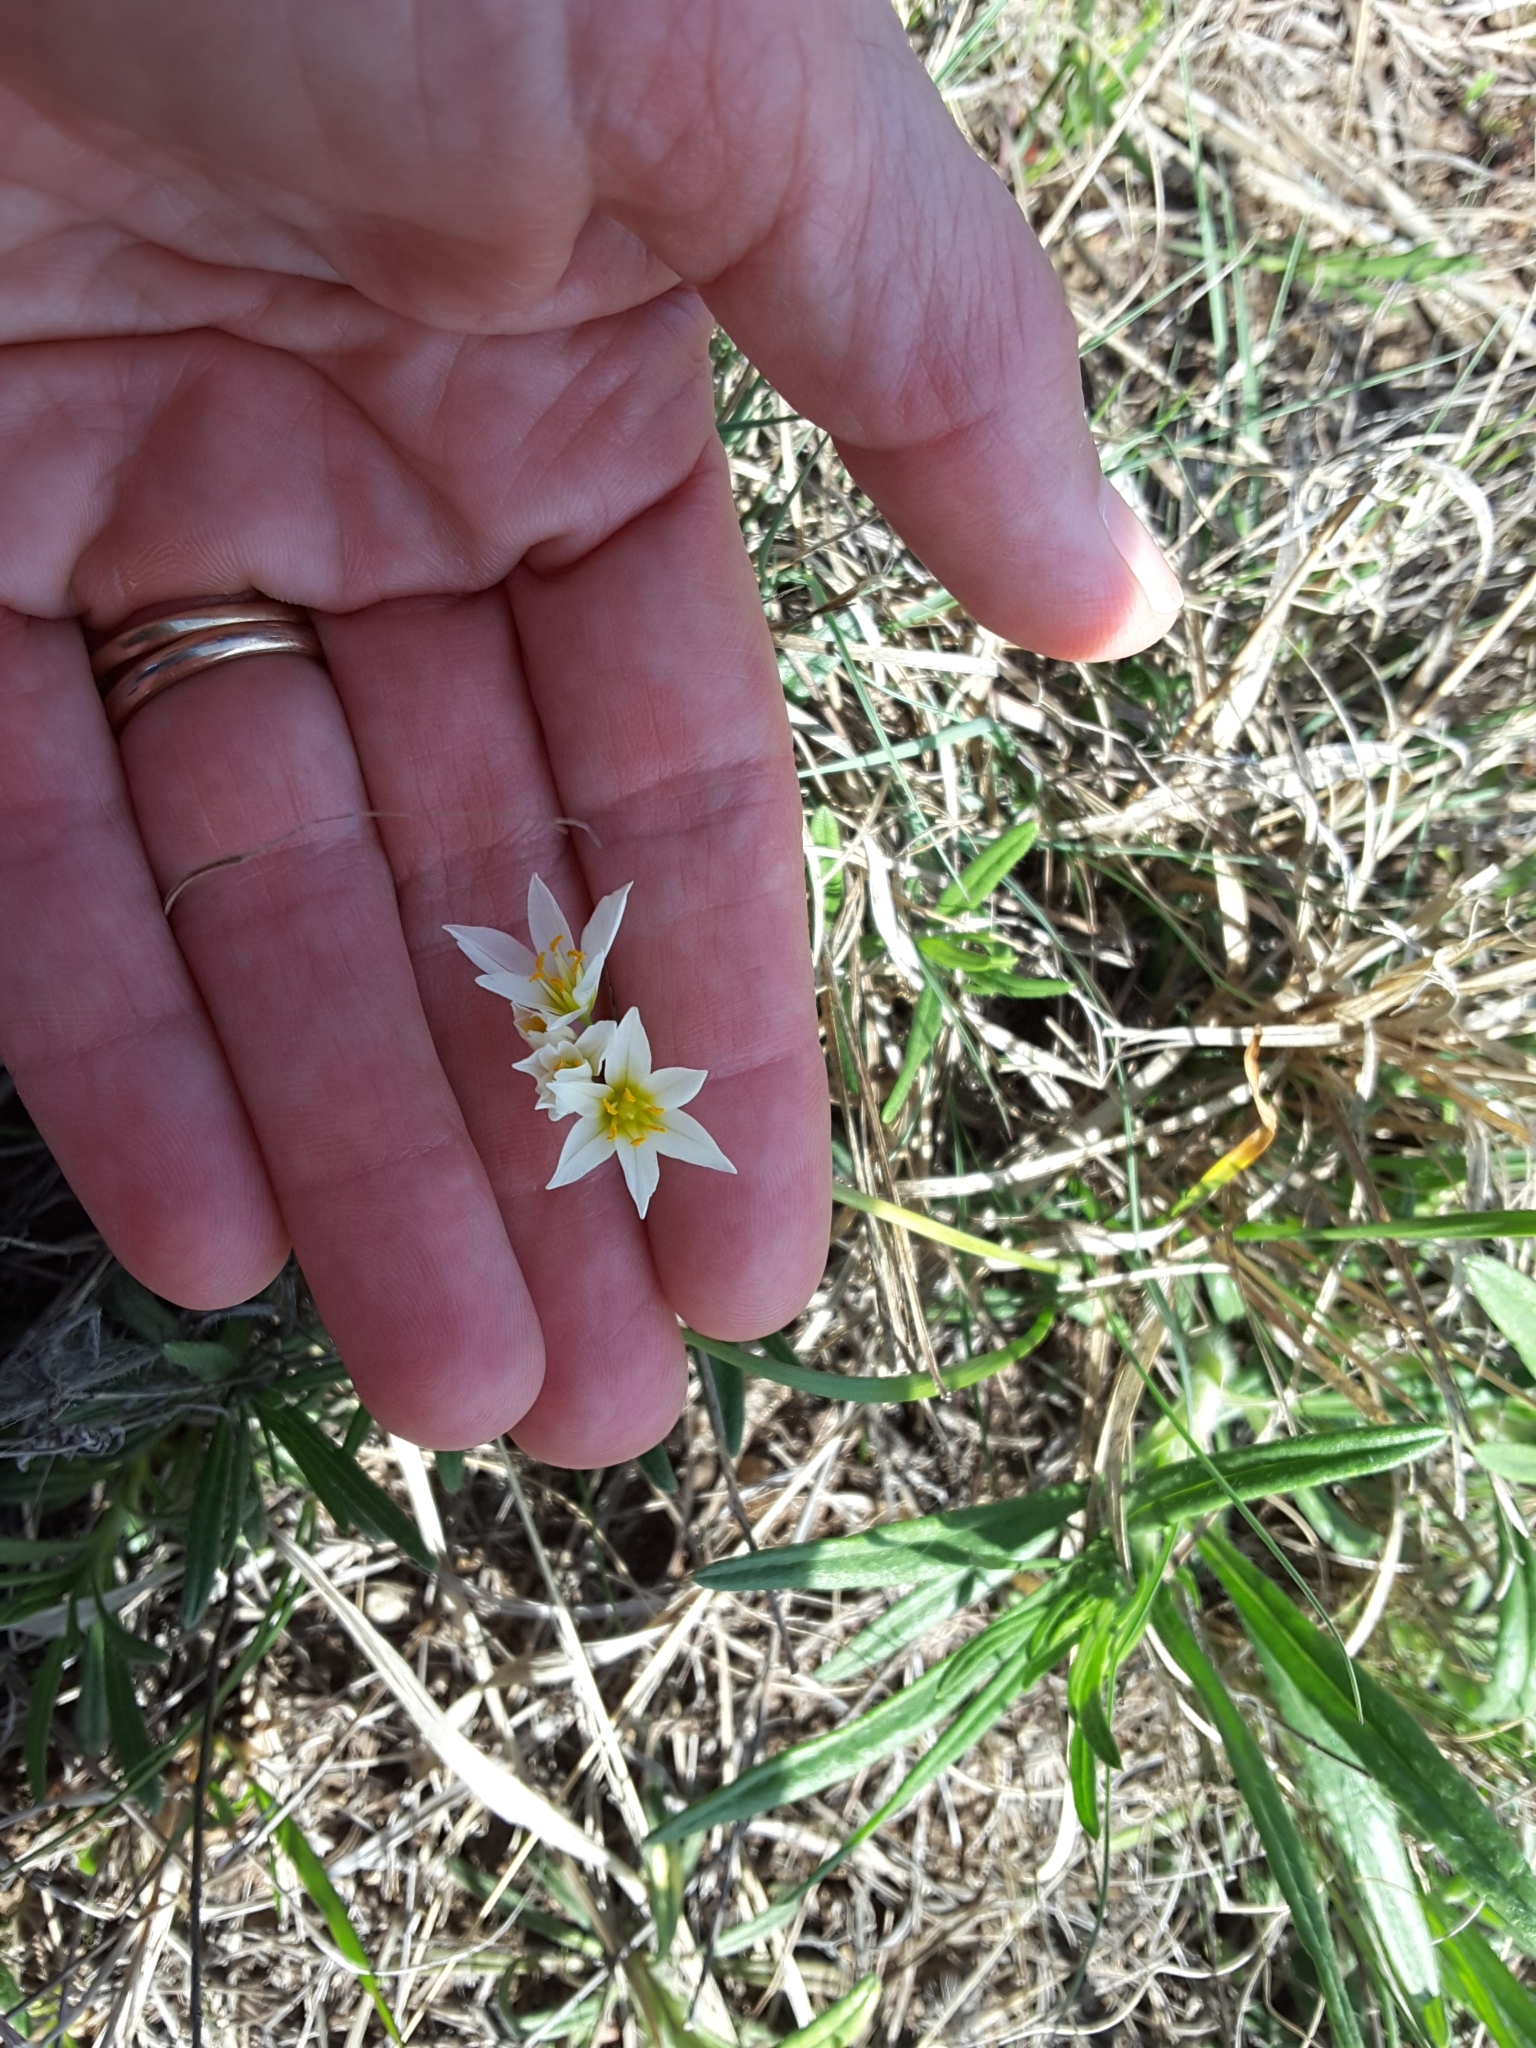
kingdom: Plantae
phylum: Tracheophyta
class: Liliopsida
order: Asparagales
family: Amaryllidaceae
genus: Nothoscordum
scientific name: Nothoscordum bivalve
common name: Crow-poison
